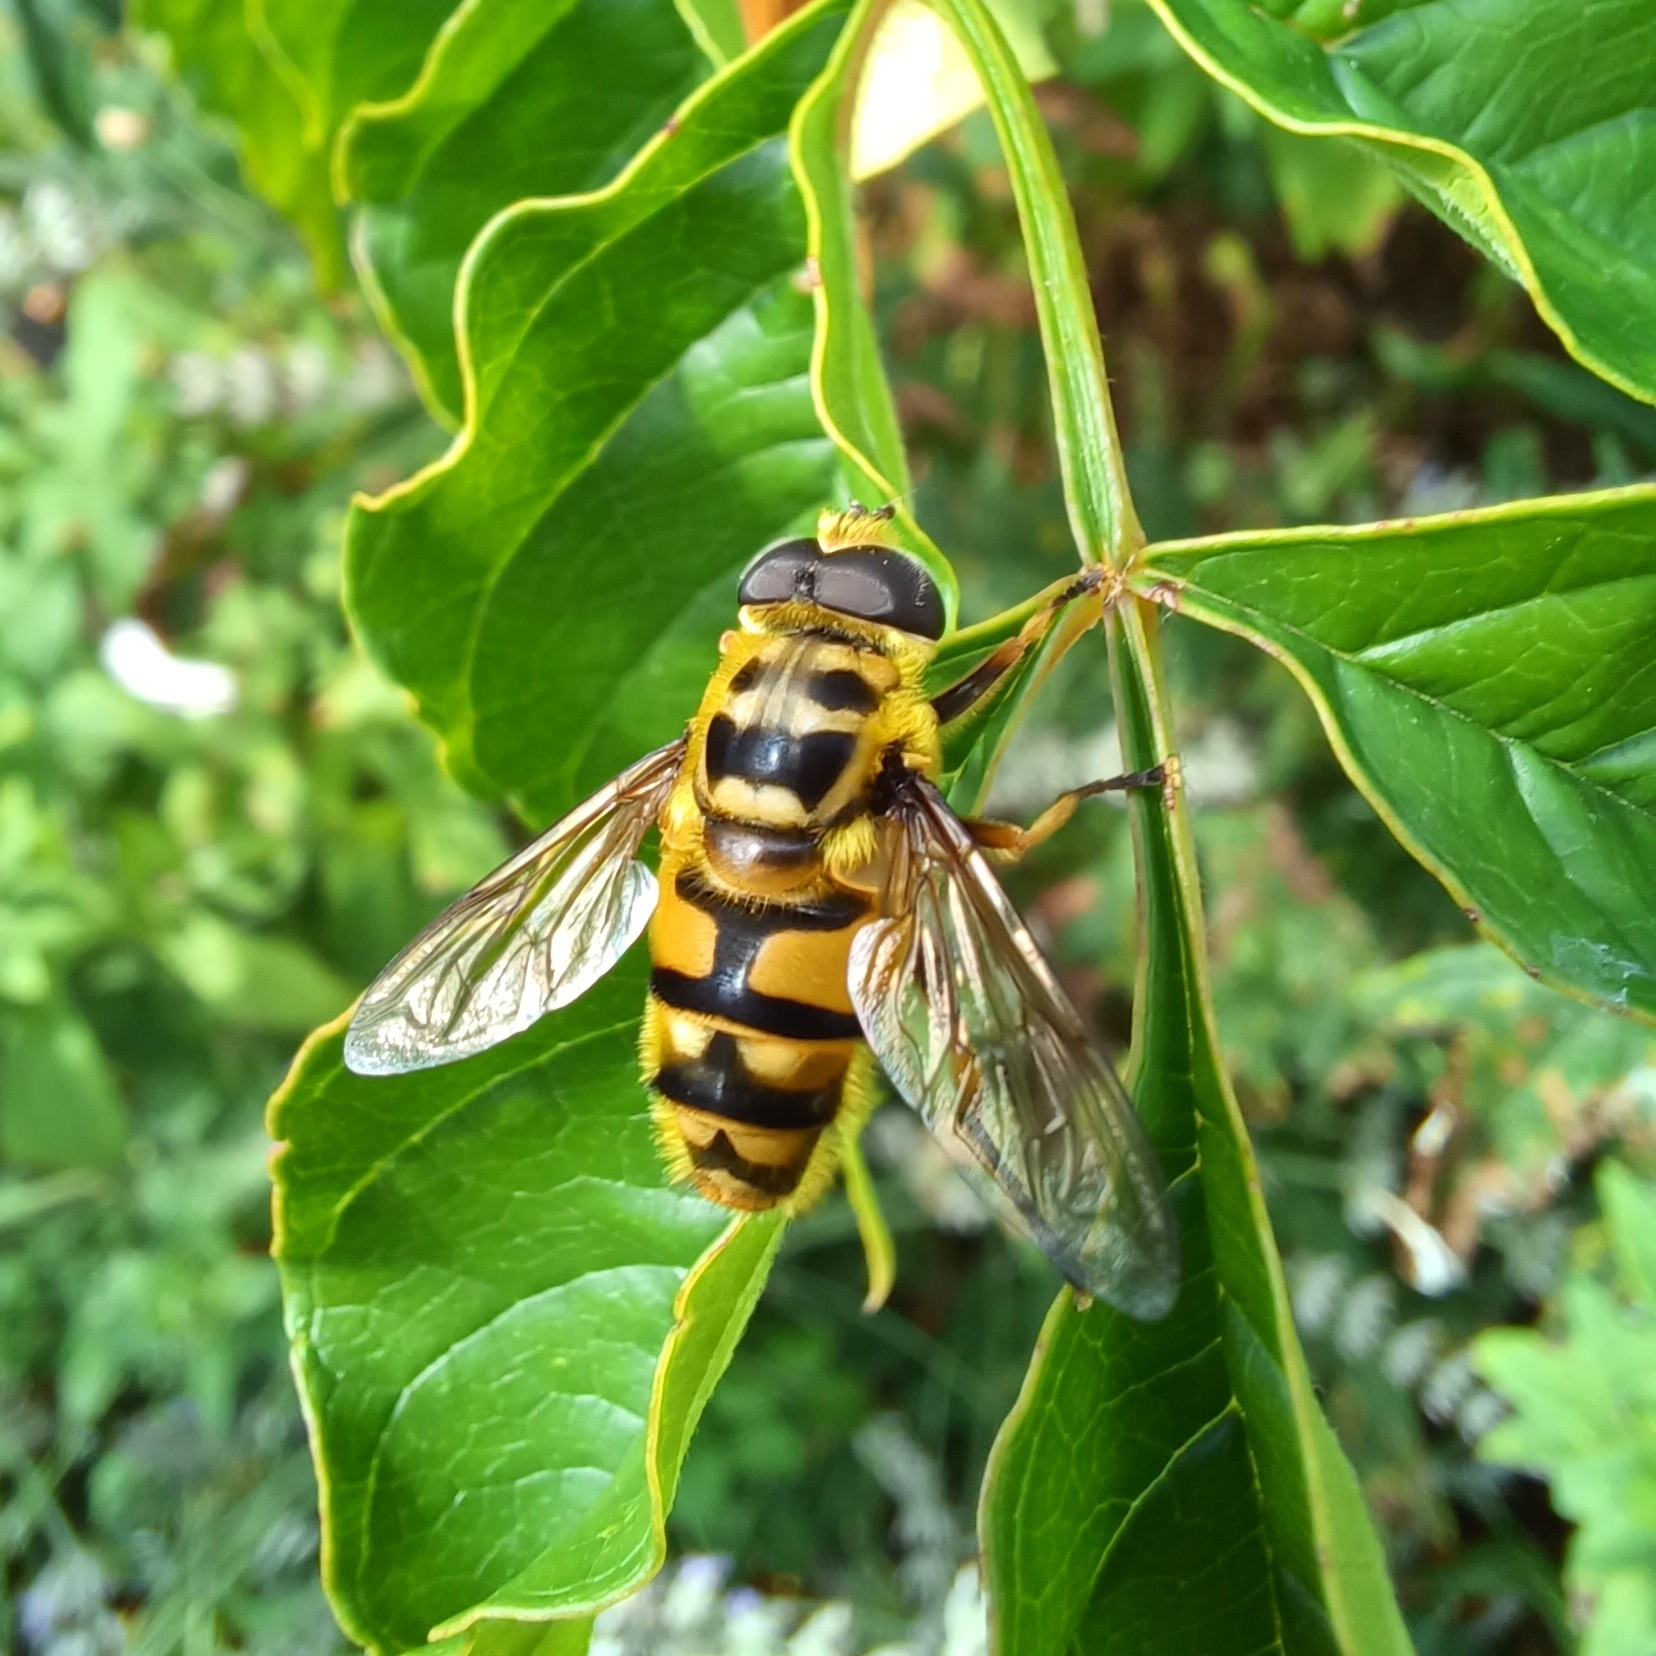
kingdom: Animalia
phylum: Arthropoda
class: Insecta
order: Diptera
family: Syrphidae
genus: Myathropa
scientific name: Myathropa florea
